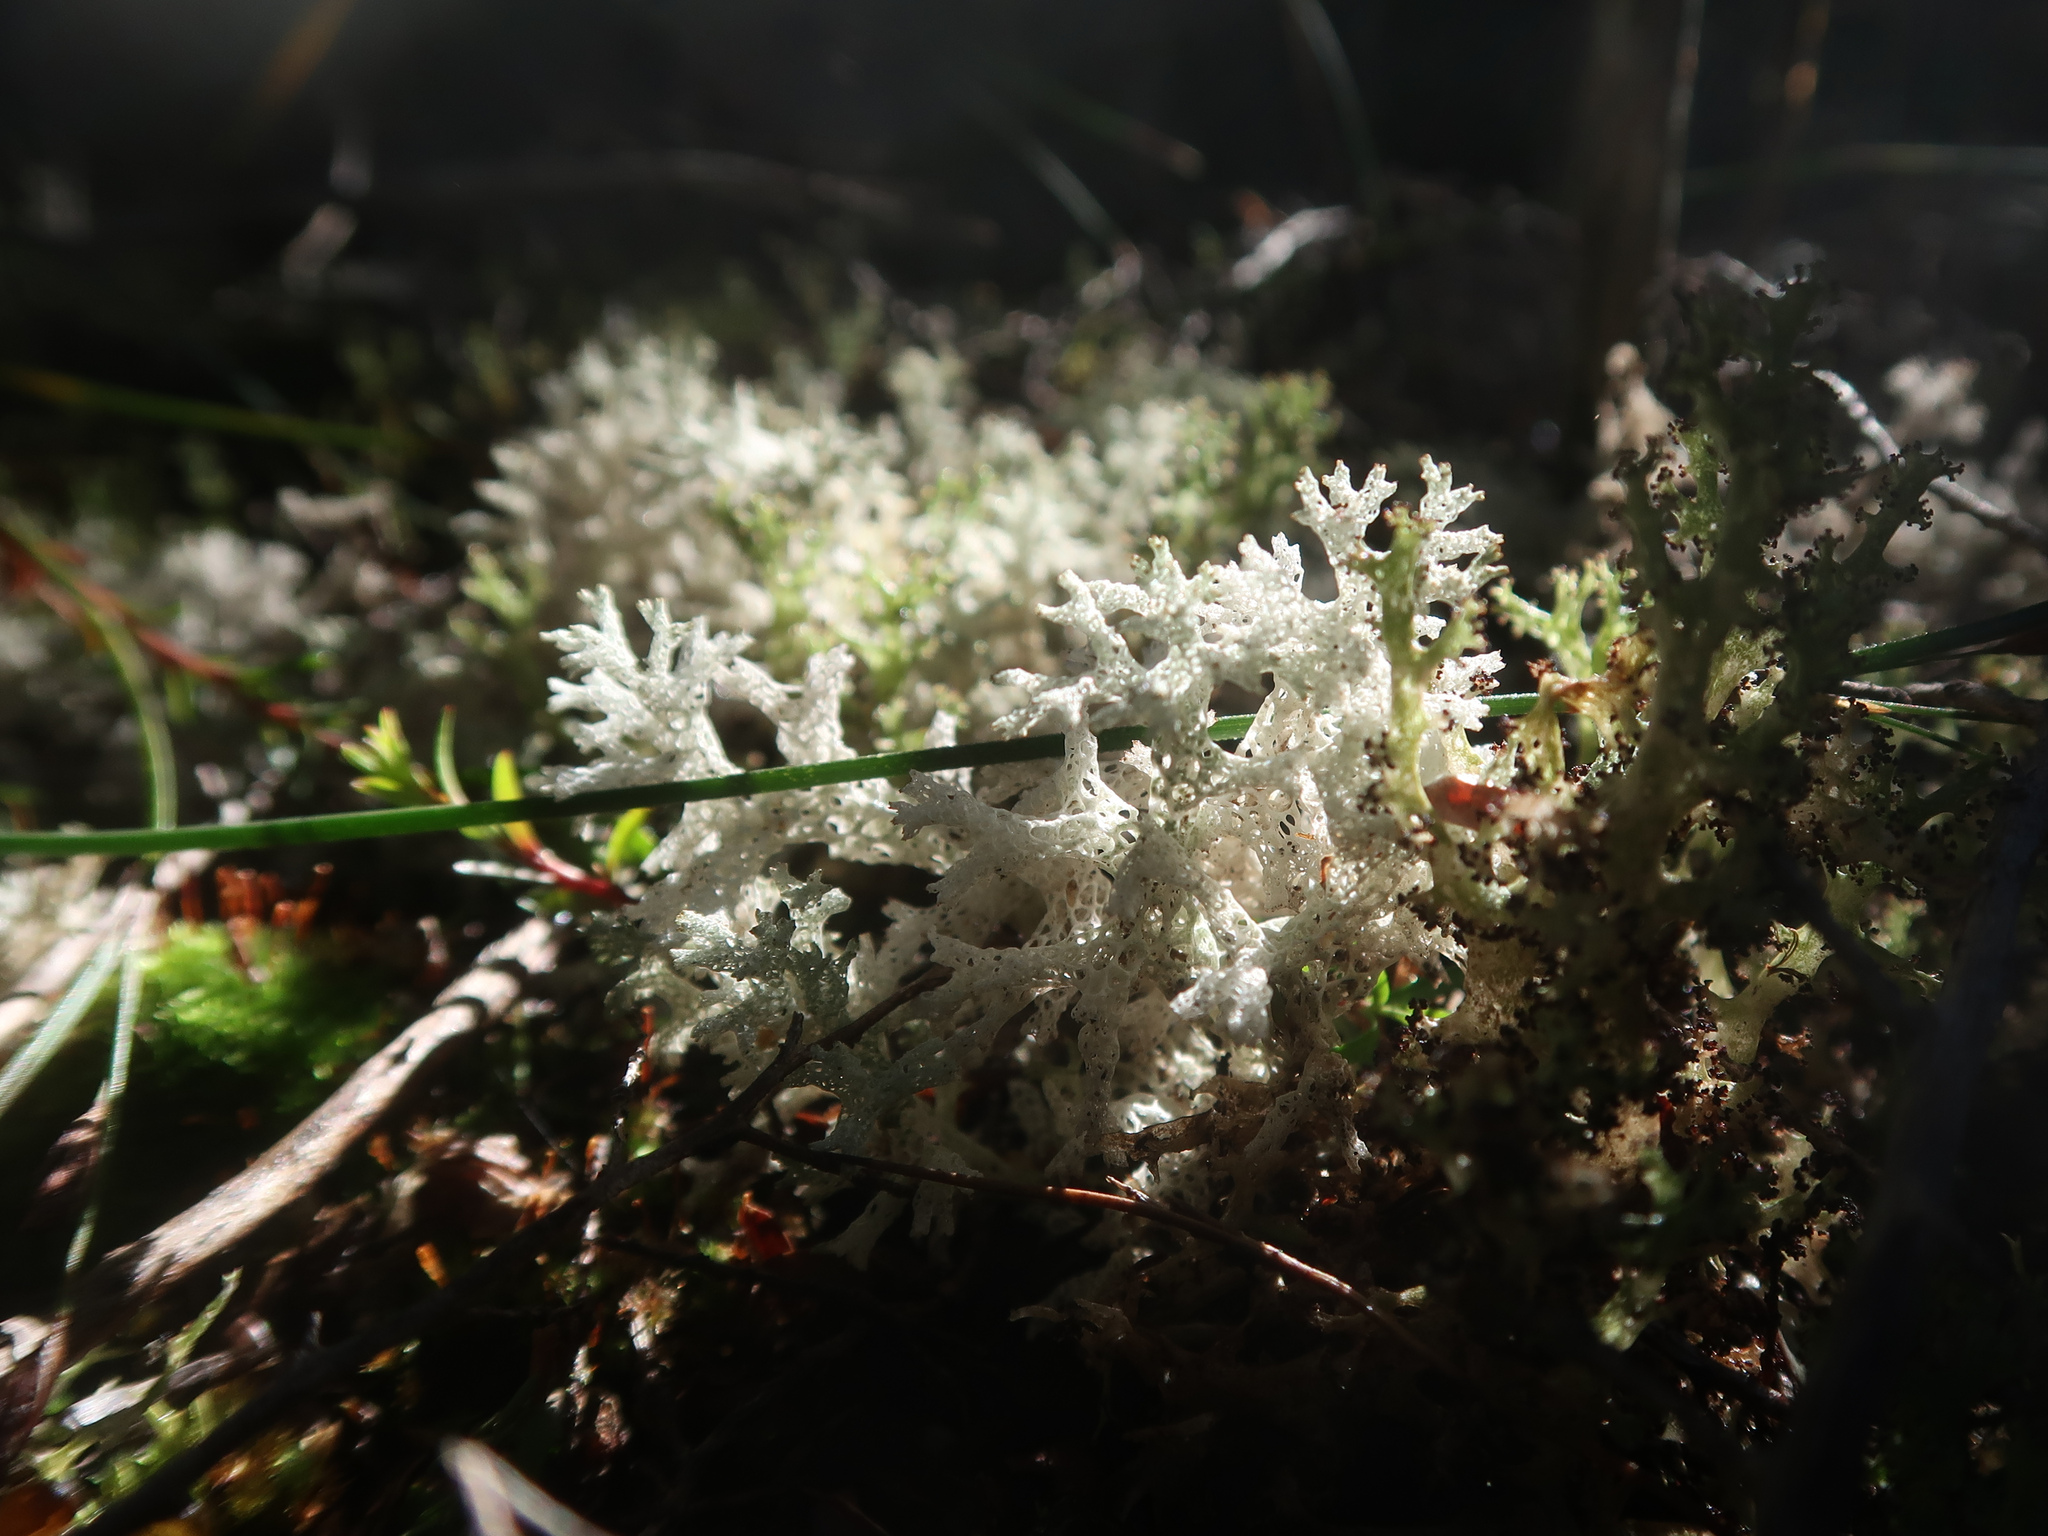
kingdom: Fungi
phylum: Ascomycota
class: Lecanoromycetes
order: Lecanorales
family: Cladoniaceae
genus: Pulchrocladia
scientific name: Pulchrocladia retipora
